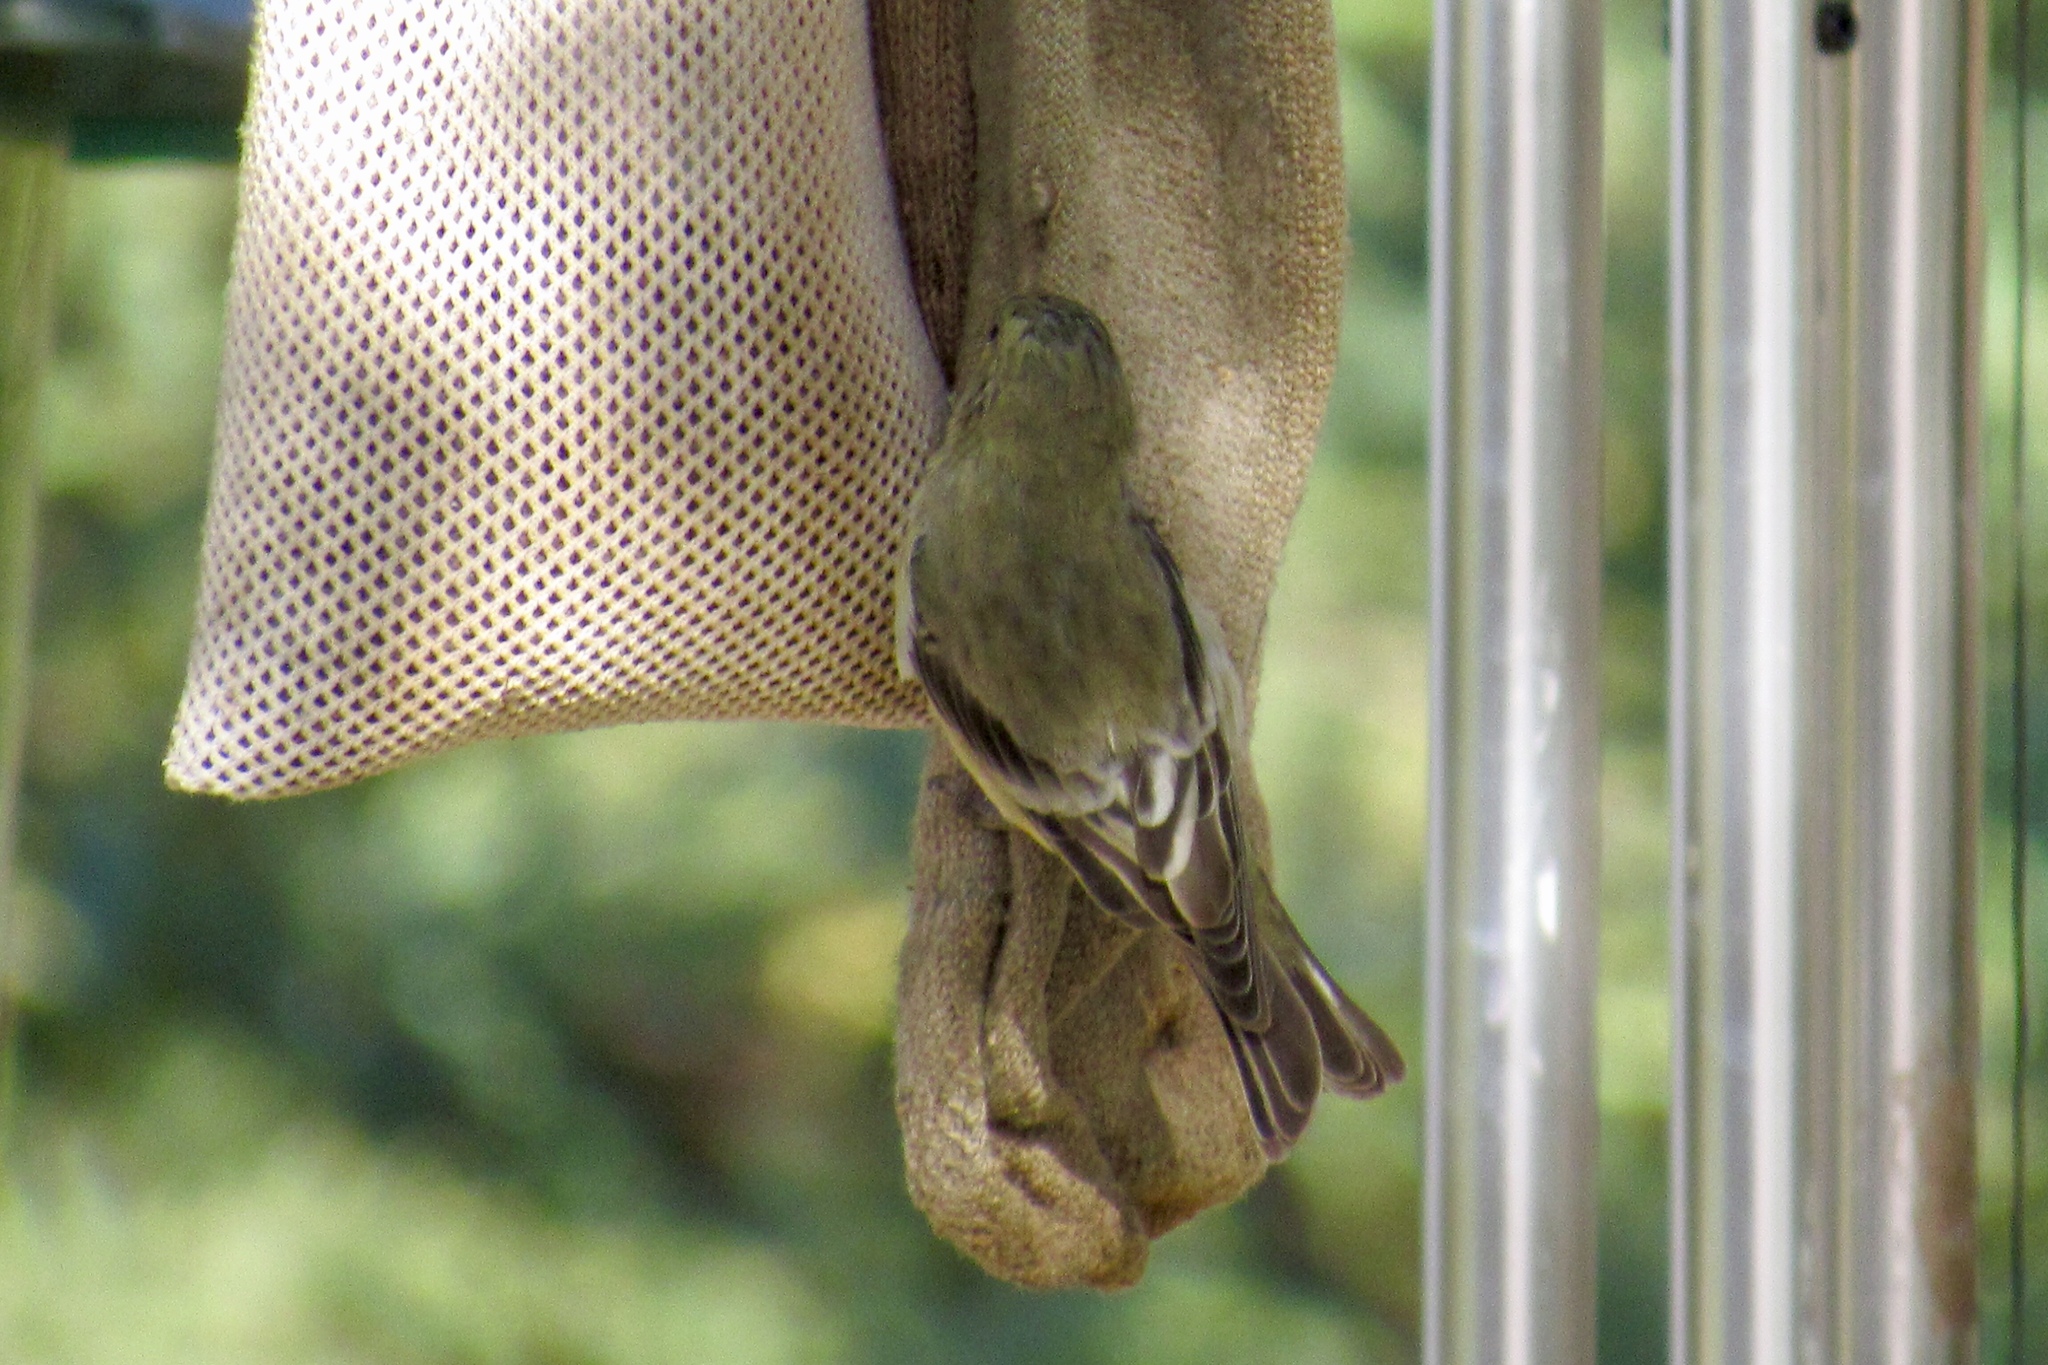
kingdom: Animalia
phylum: Chordata
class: Aves
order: Passeriformes
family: Fringillidae
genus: Spinus
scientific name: Spinus psaltria
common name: Lesser goldfinch
